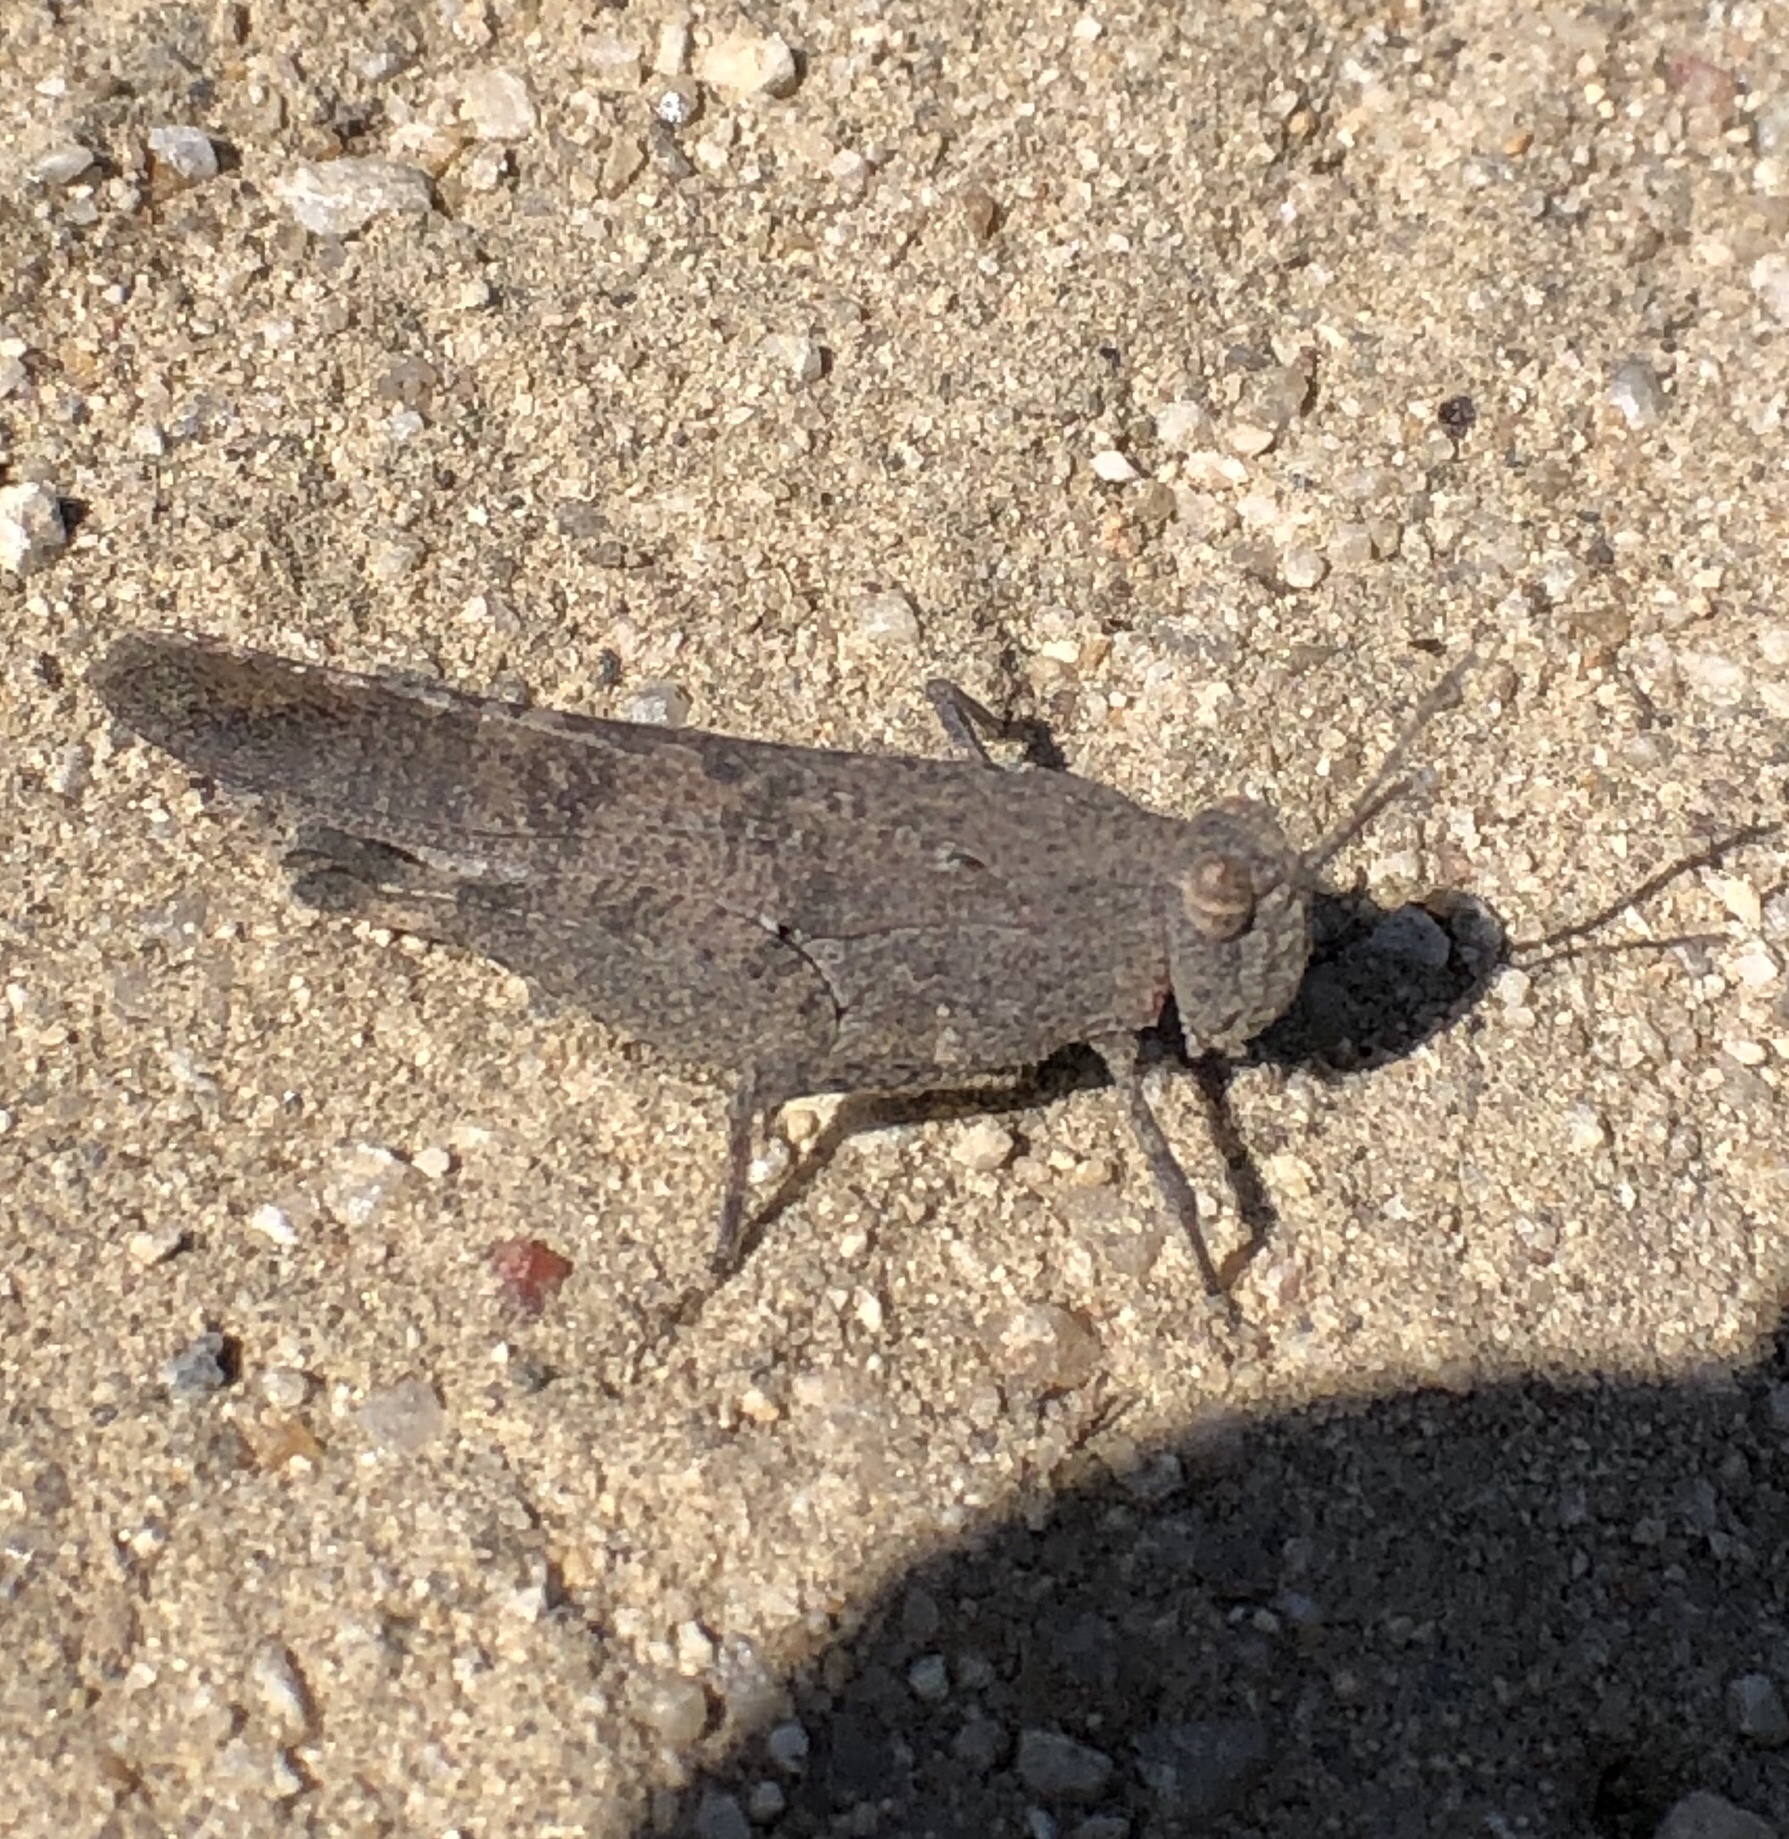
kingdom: Animalia
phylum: Arthropoda
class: Insecta
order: Orthoptera
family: Acrididae
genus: Lactista
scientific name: Lactista gibbosus
